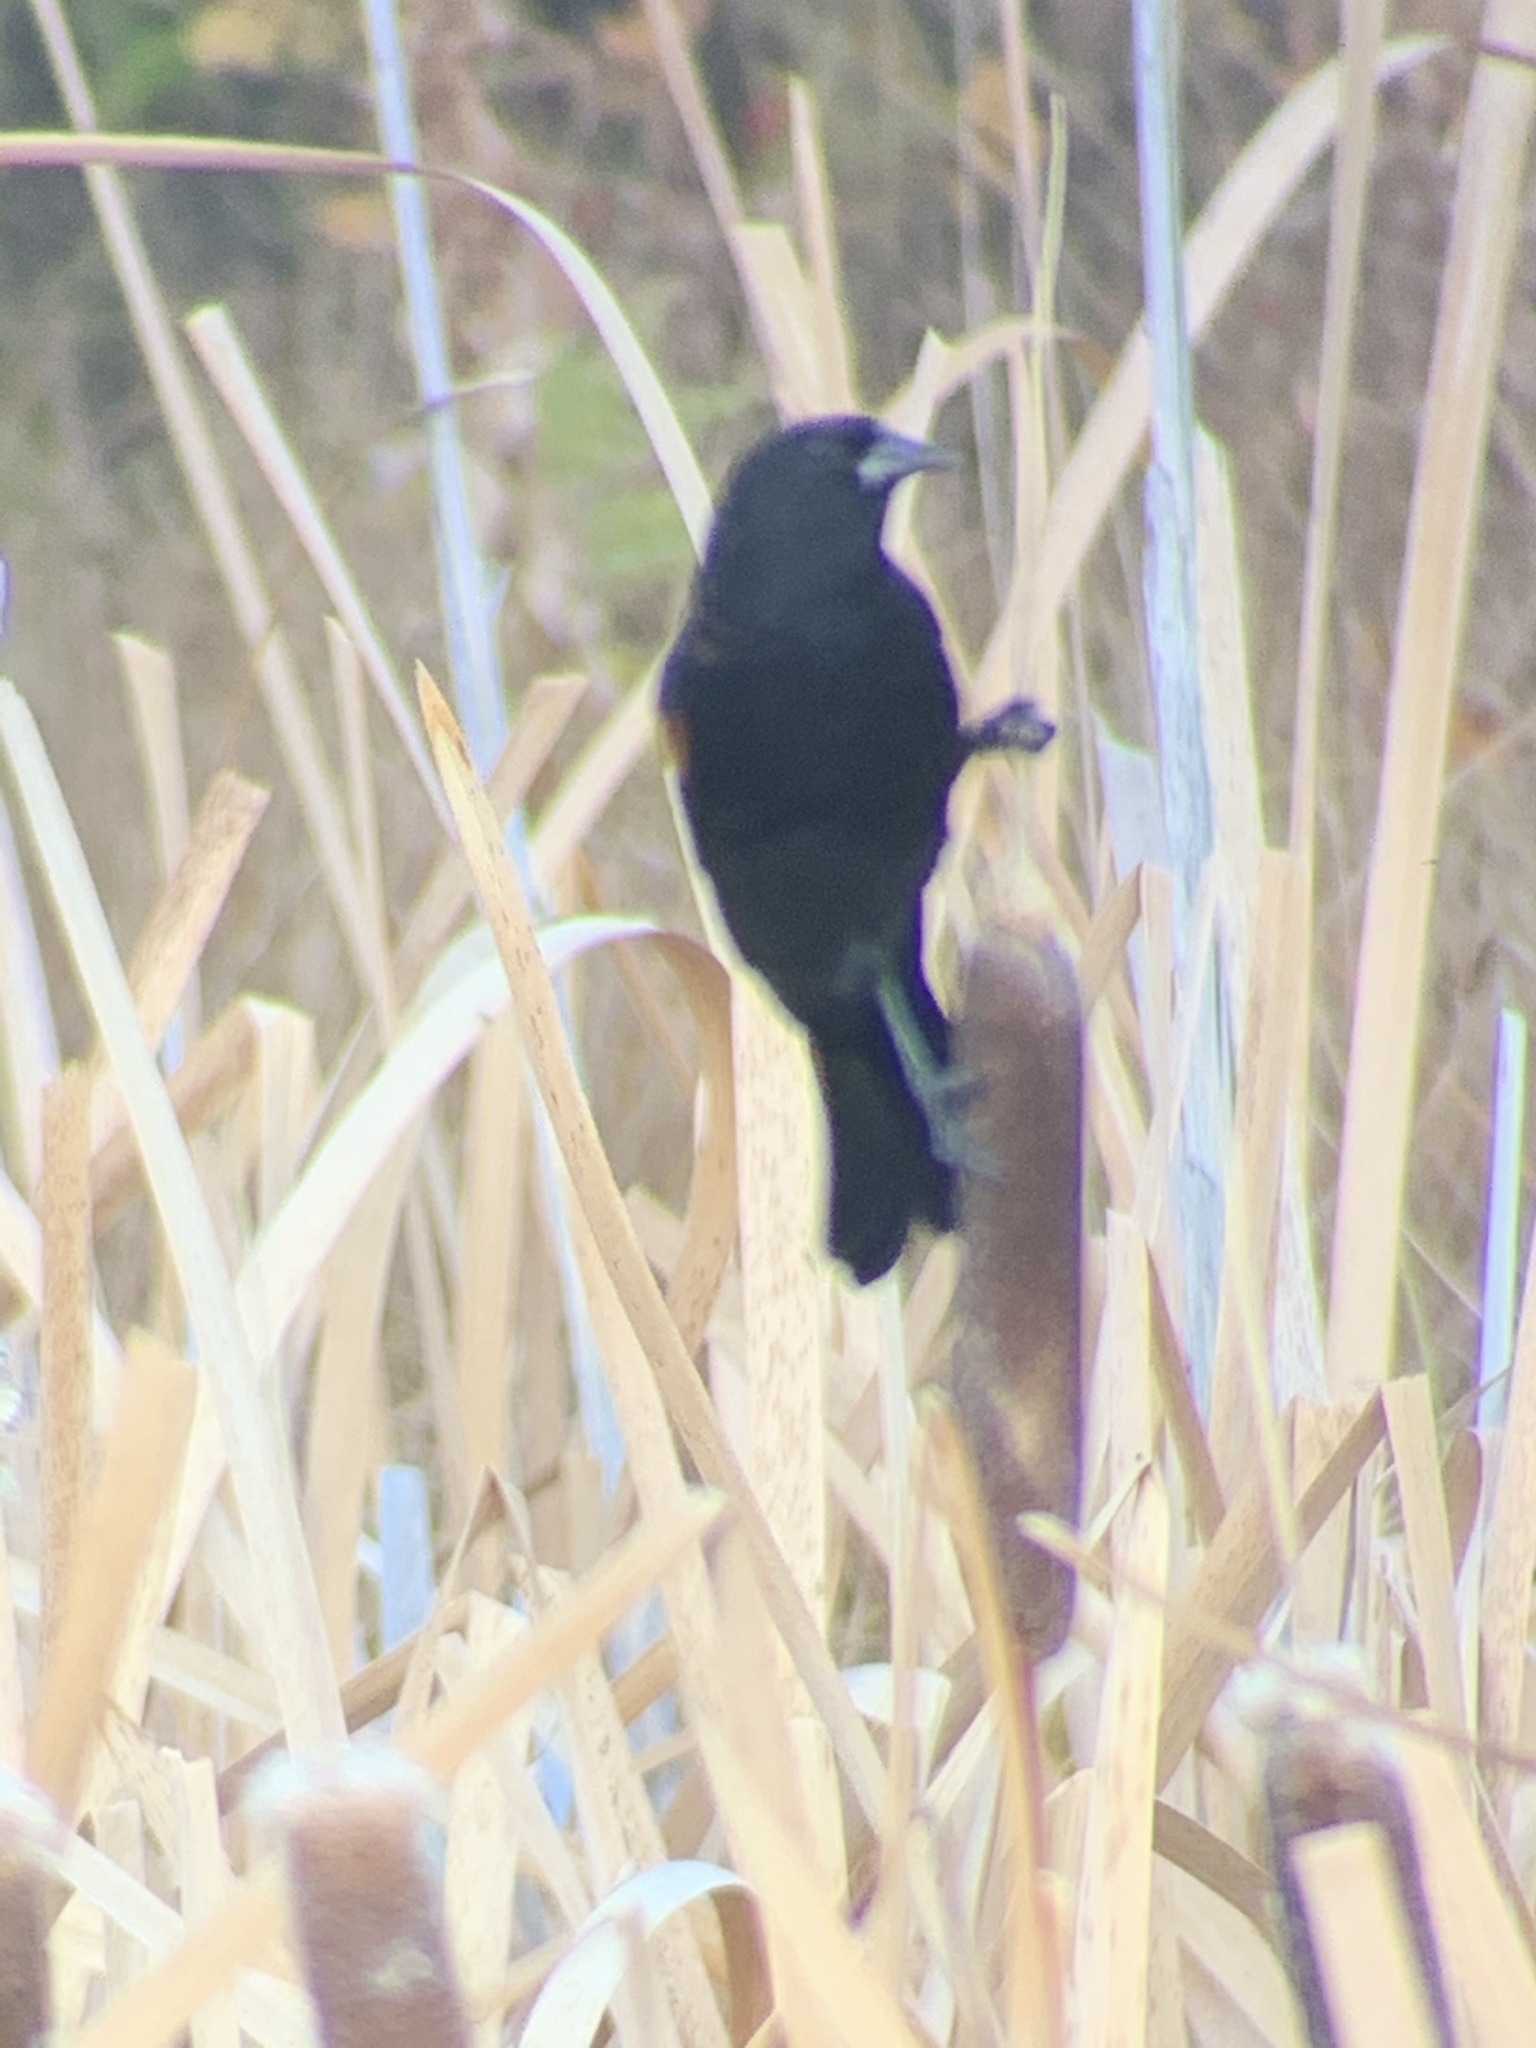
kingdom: Animalia
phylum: Chordata
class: Aves
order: Passeriformes
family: Icteridae
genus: Agelaius
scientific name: Agelaius phoeniceus
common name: Red-winged blackbird
